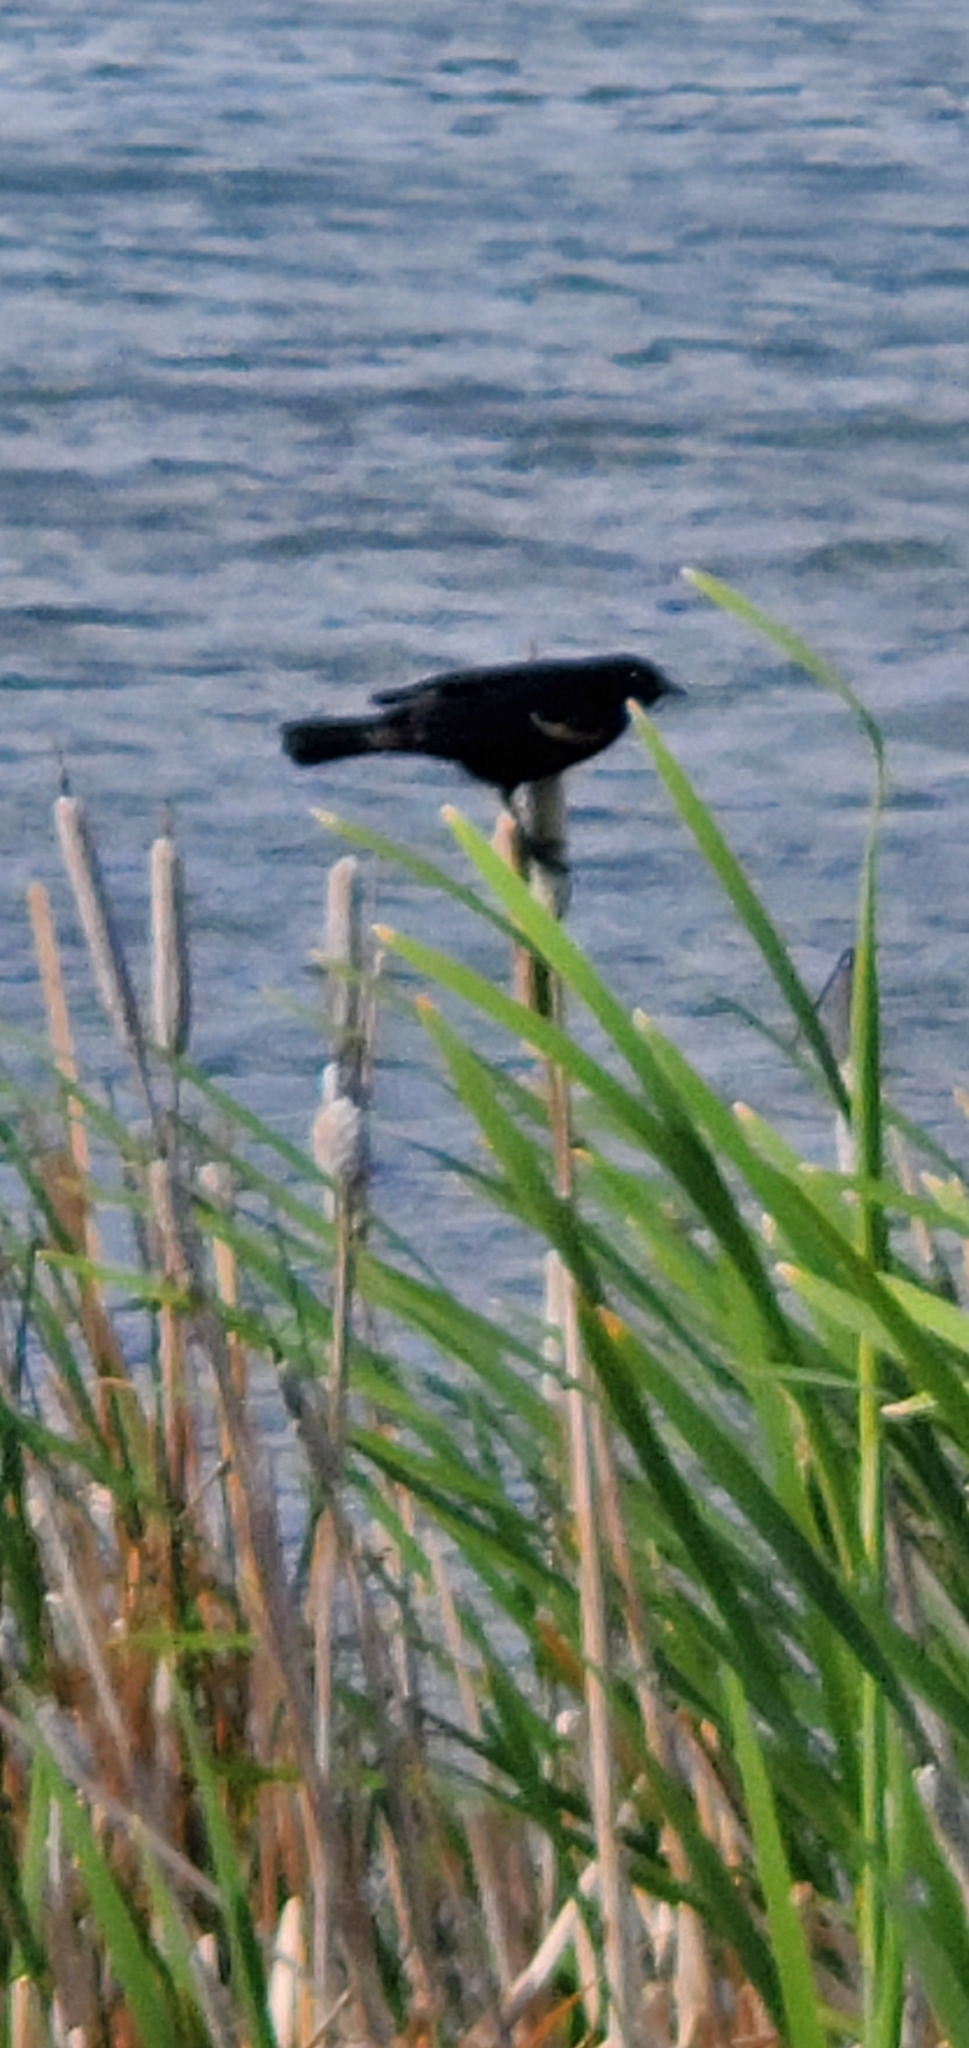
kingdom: Animalia
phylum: Chordata
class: Aves
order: Passeriformes
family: Icteridae
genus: Agelaius
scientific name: Agelaius phoeniceus
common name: Red-winged blackbird
